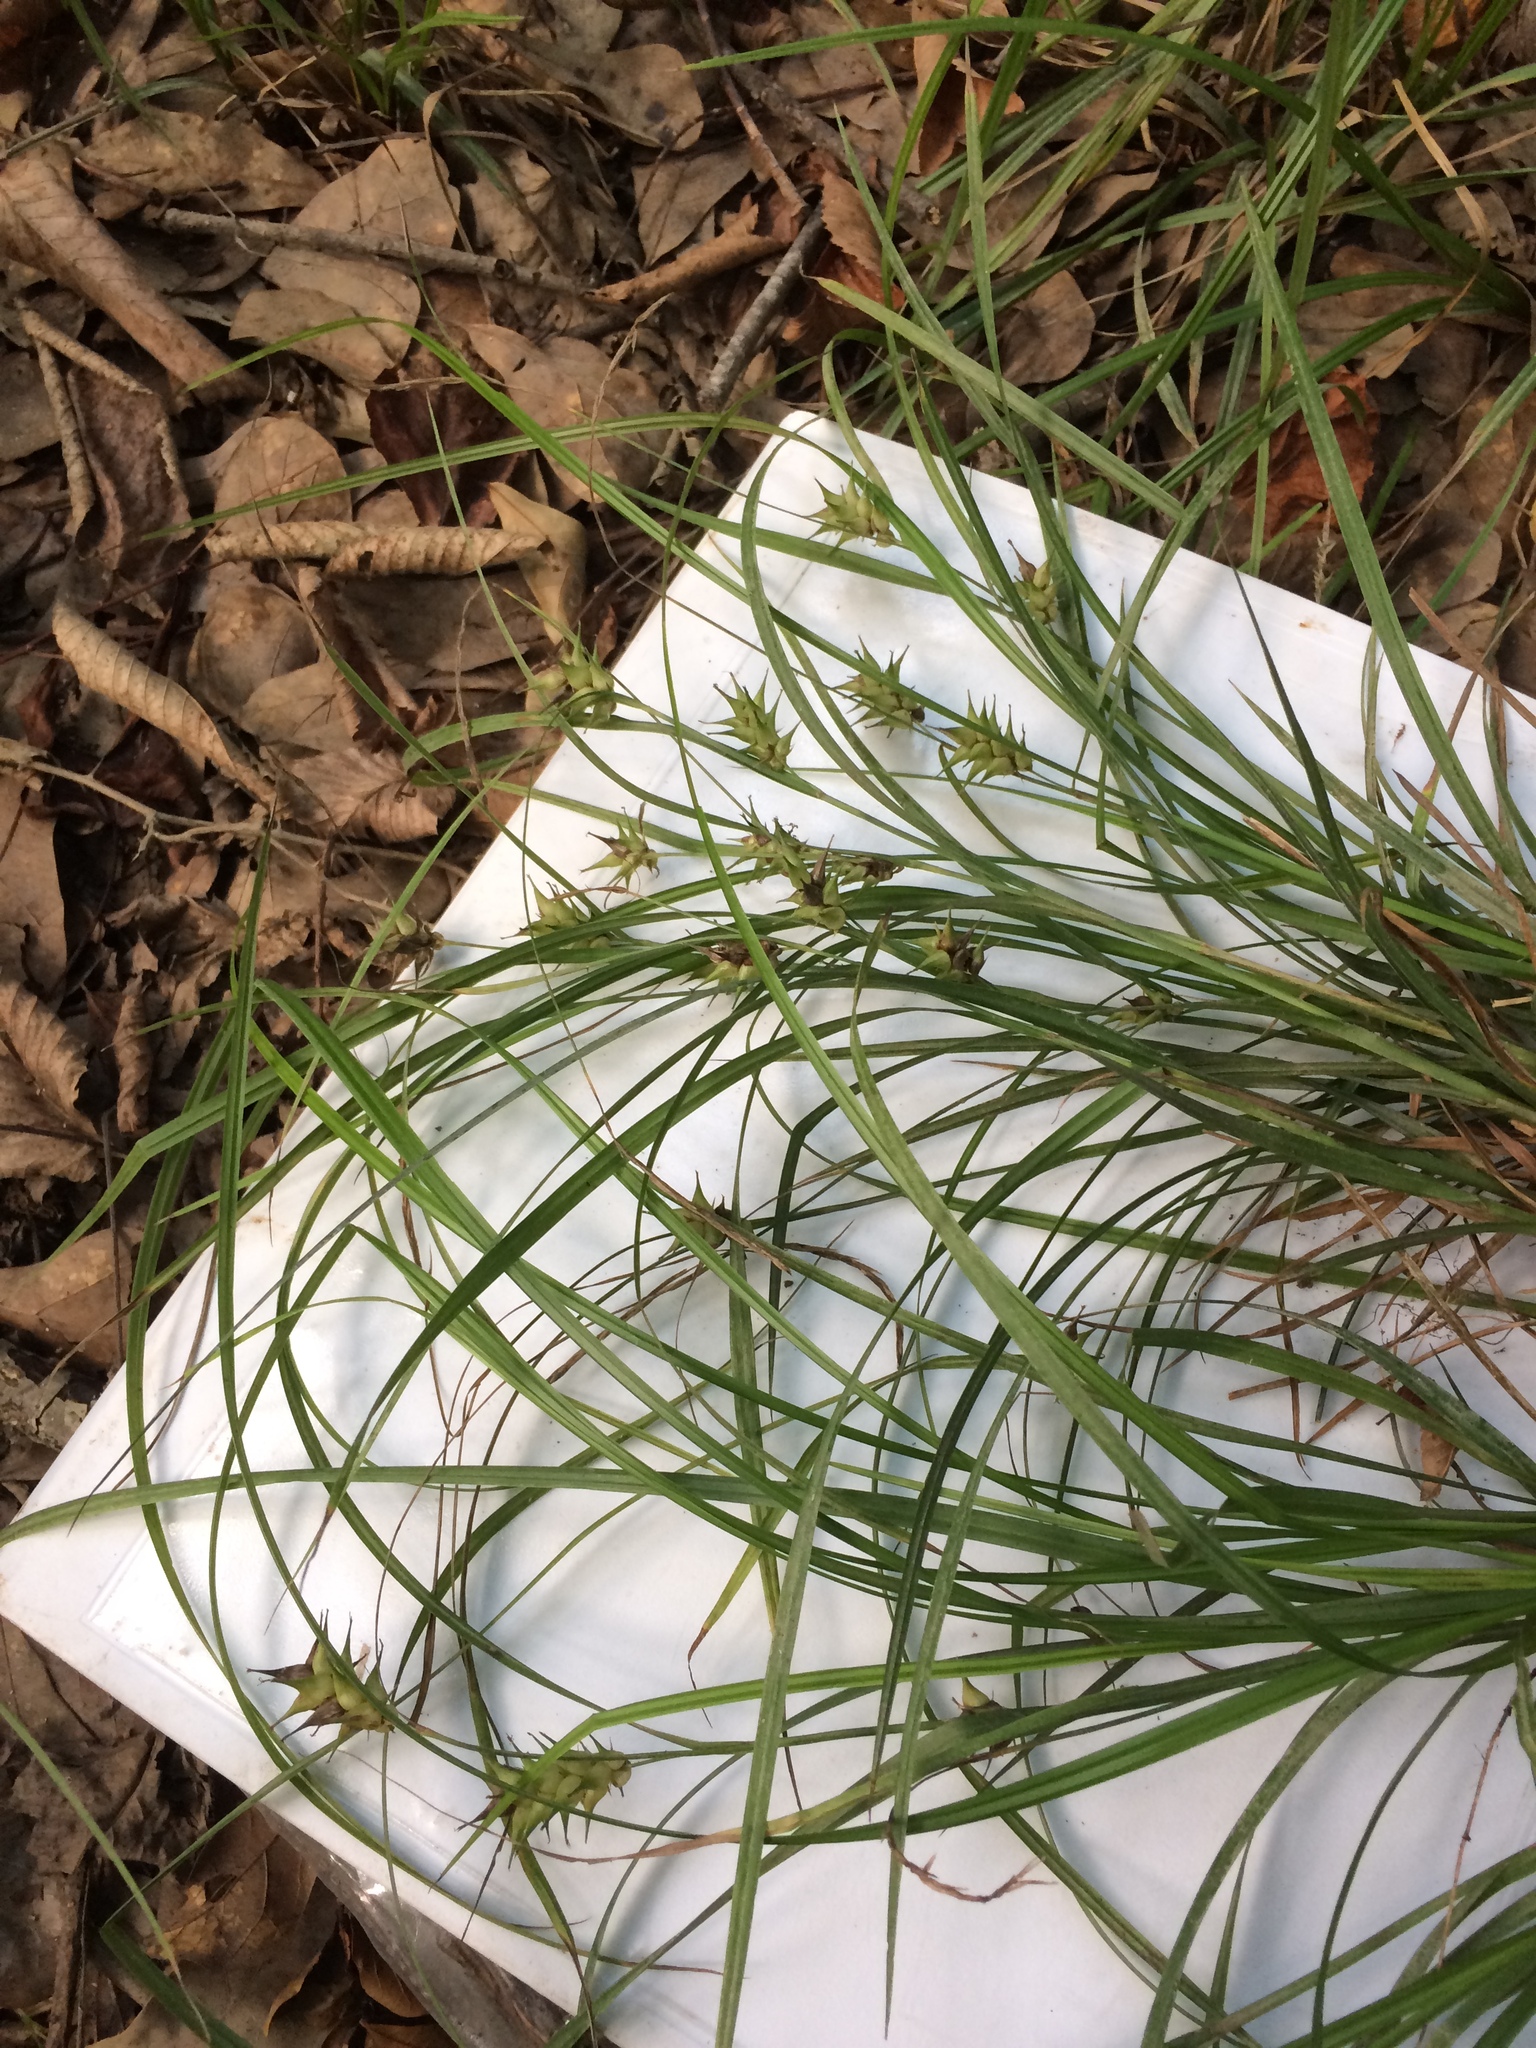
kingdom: Plantae
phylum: Tracheophyta
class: Liliopsida
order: Poales
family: Cyperaceae
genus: Carex
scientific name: Carex louisianica
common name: Louisiana sedge
